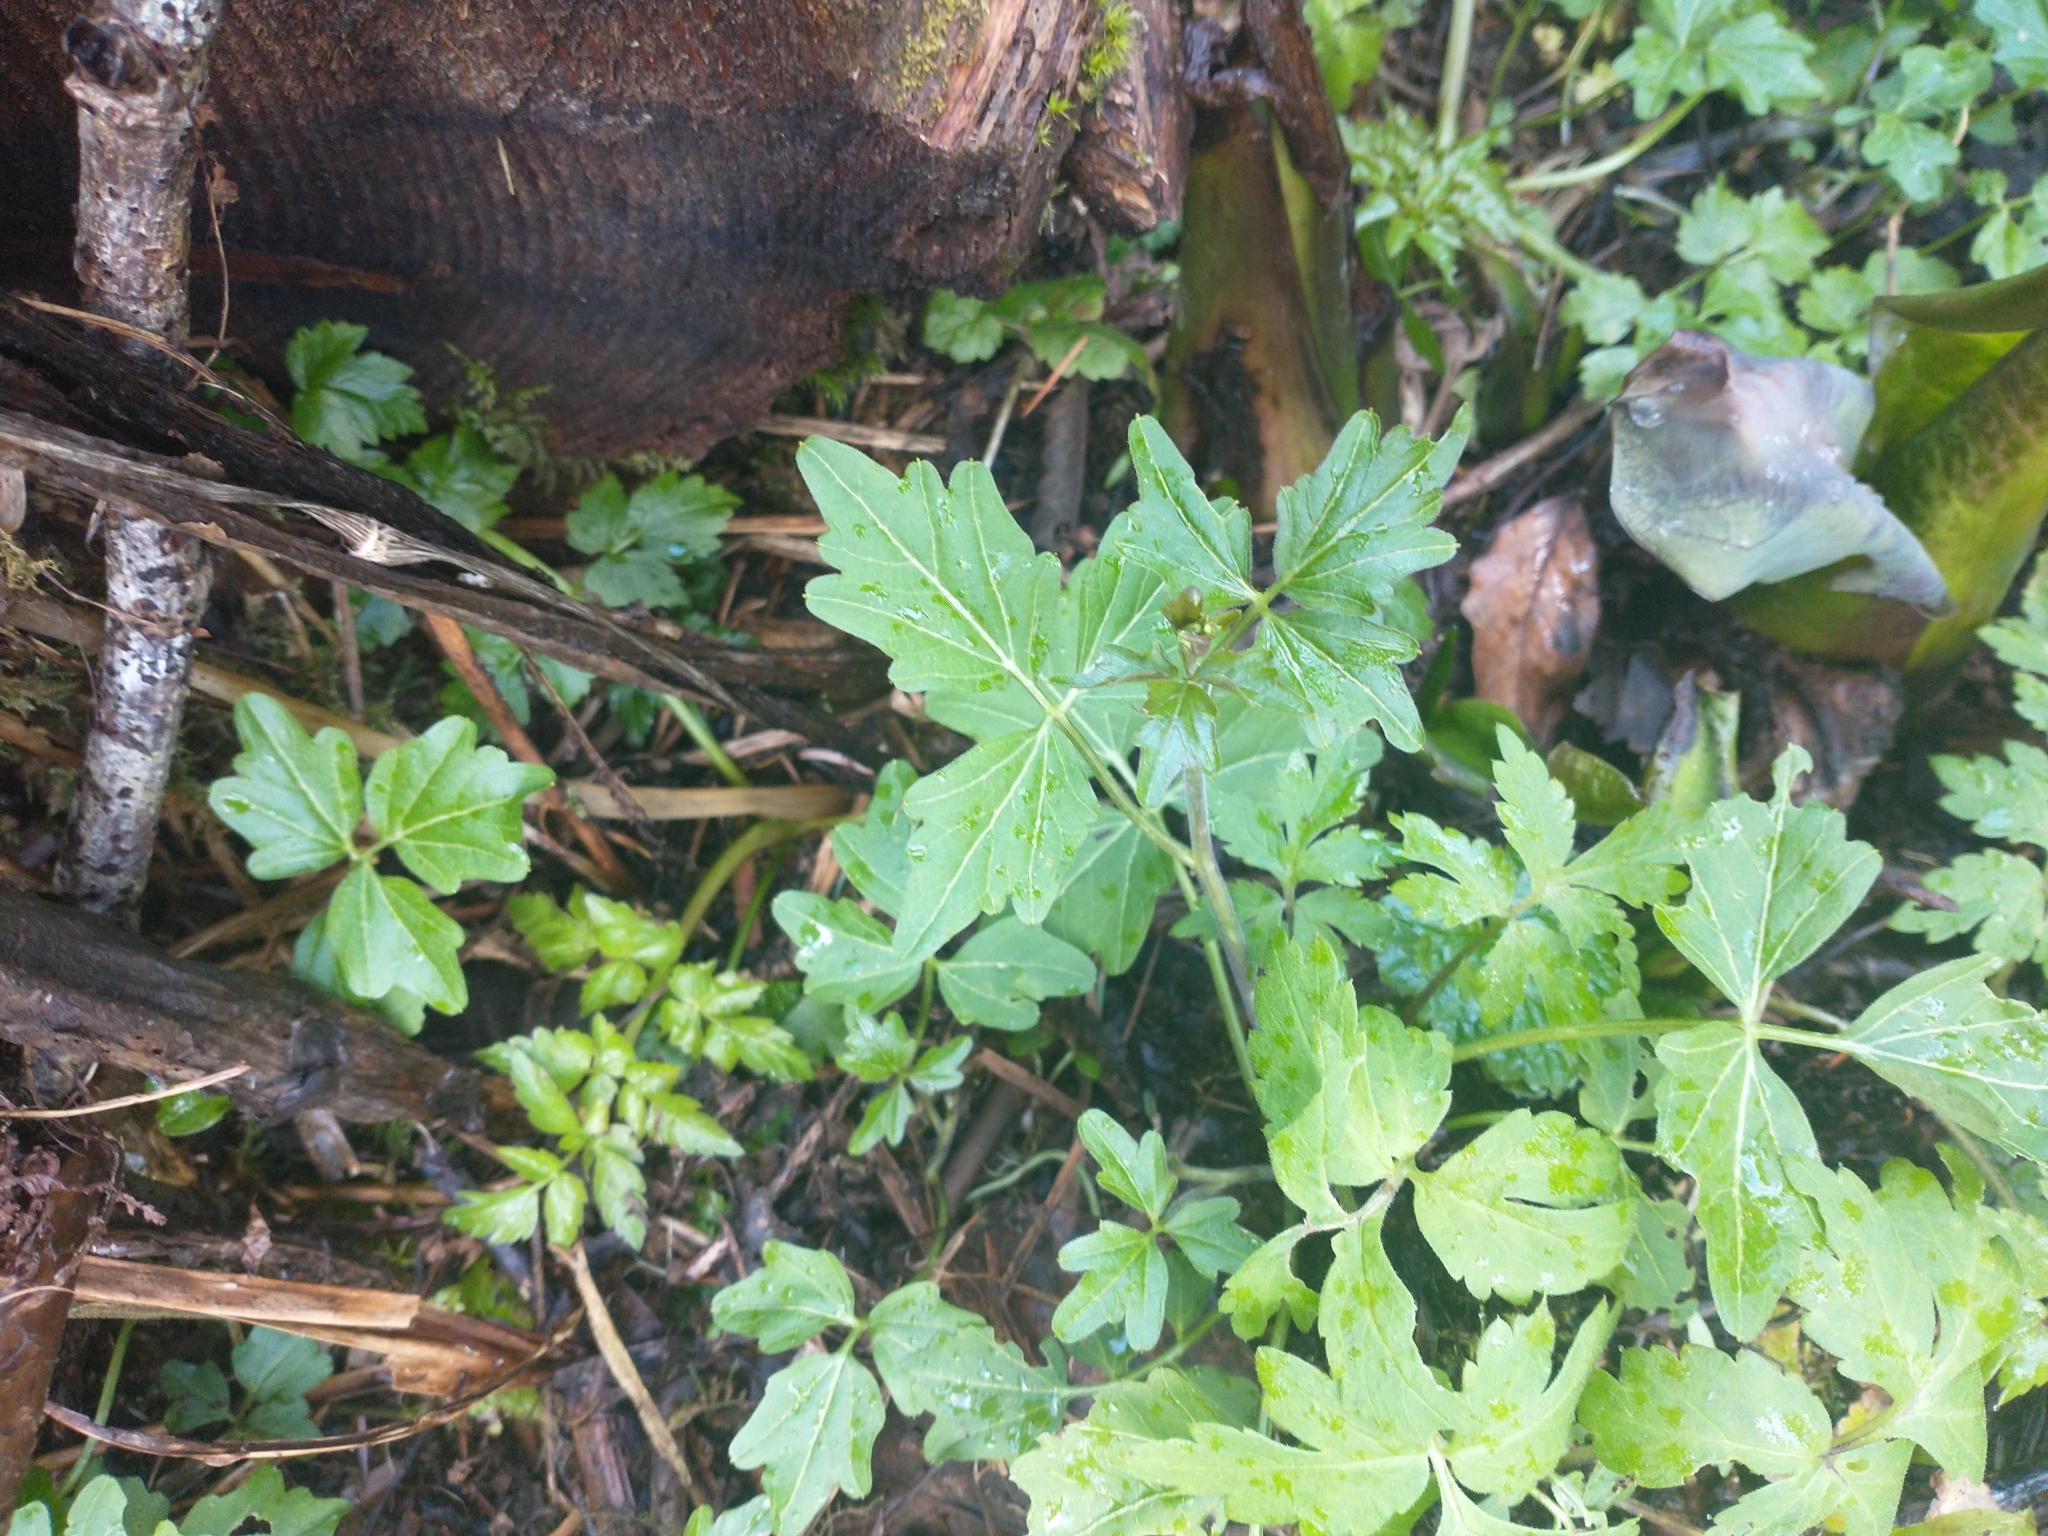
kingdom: Plantae
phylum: Tracheophyta
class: Magnoliopsida
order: Brassicales
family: Brassicaceae
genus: Cardamine
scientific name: Cardamine angulata
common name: Angled bittercress
